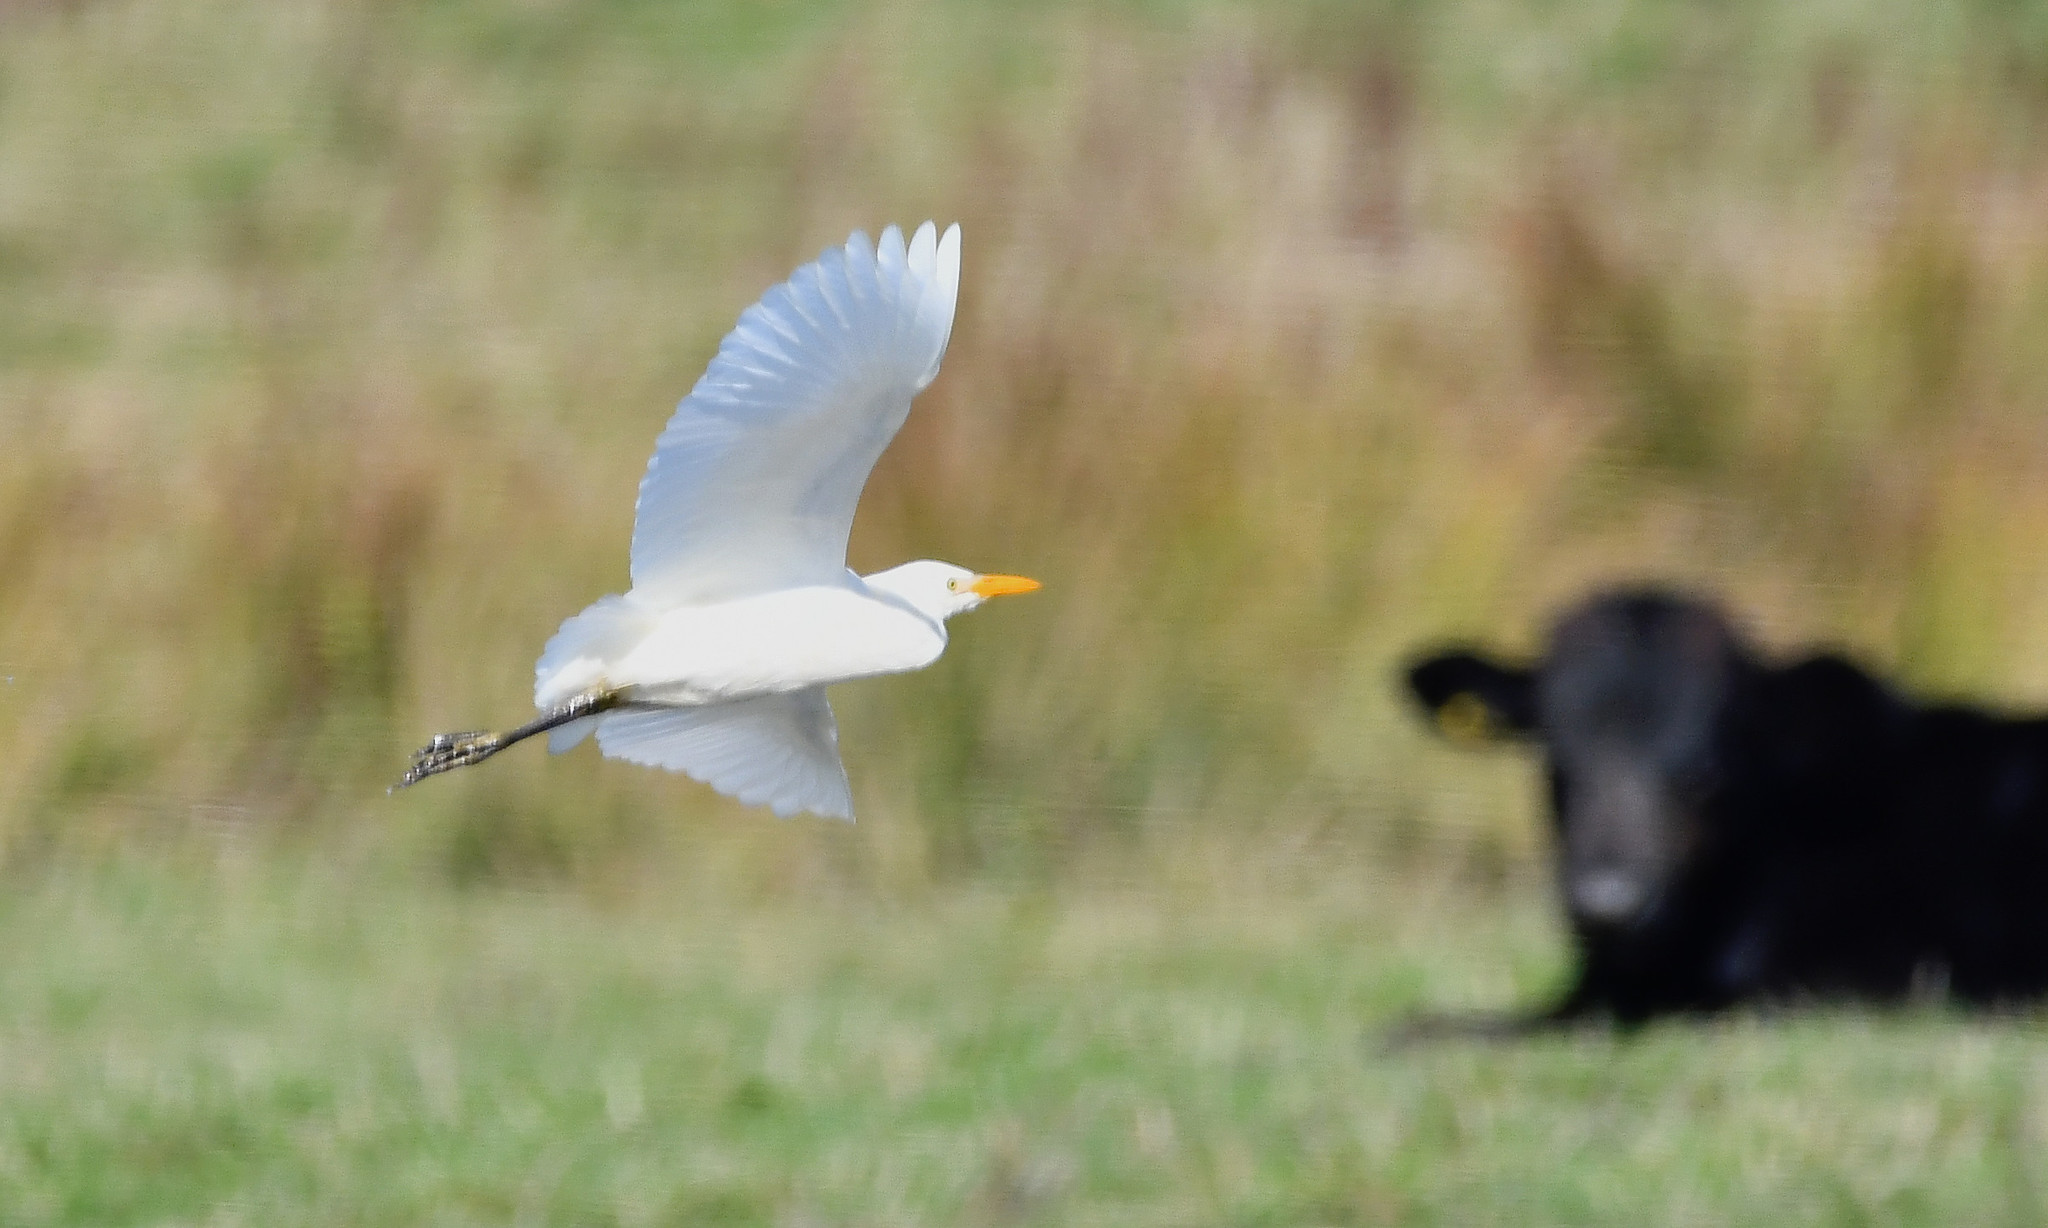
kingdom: Animalia
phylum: Chordata
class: Aves
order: Pelecaniformes
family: Ardeidae
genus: Bubulcus
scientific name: Bubulcus ibis
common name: Cattle egret
